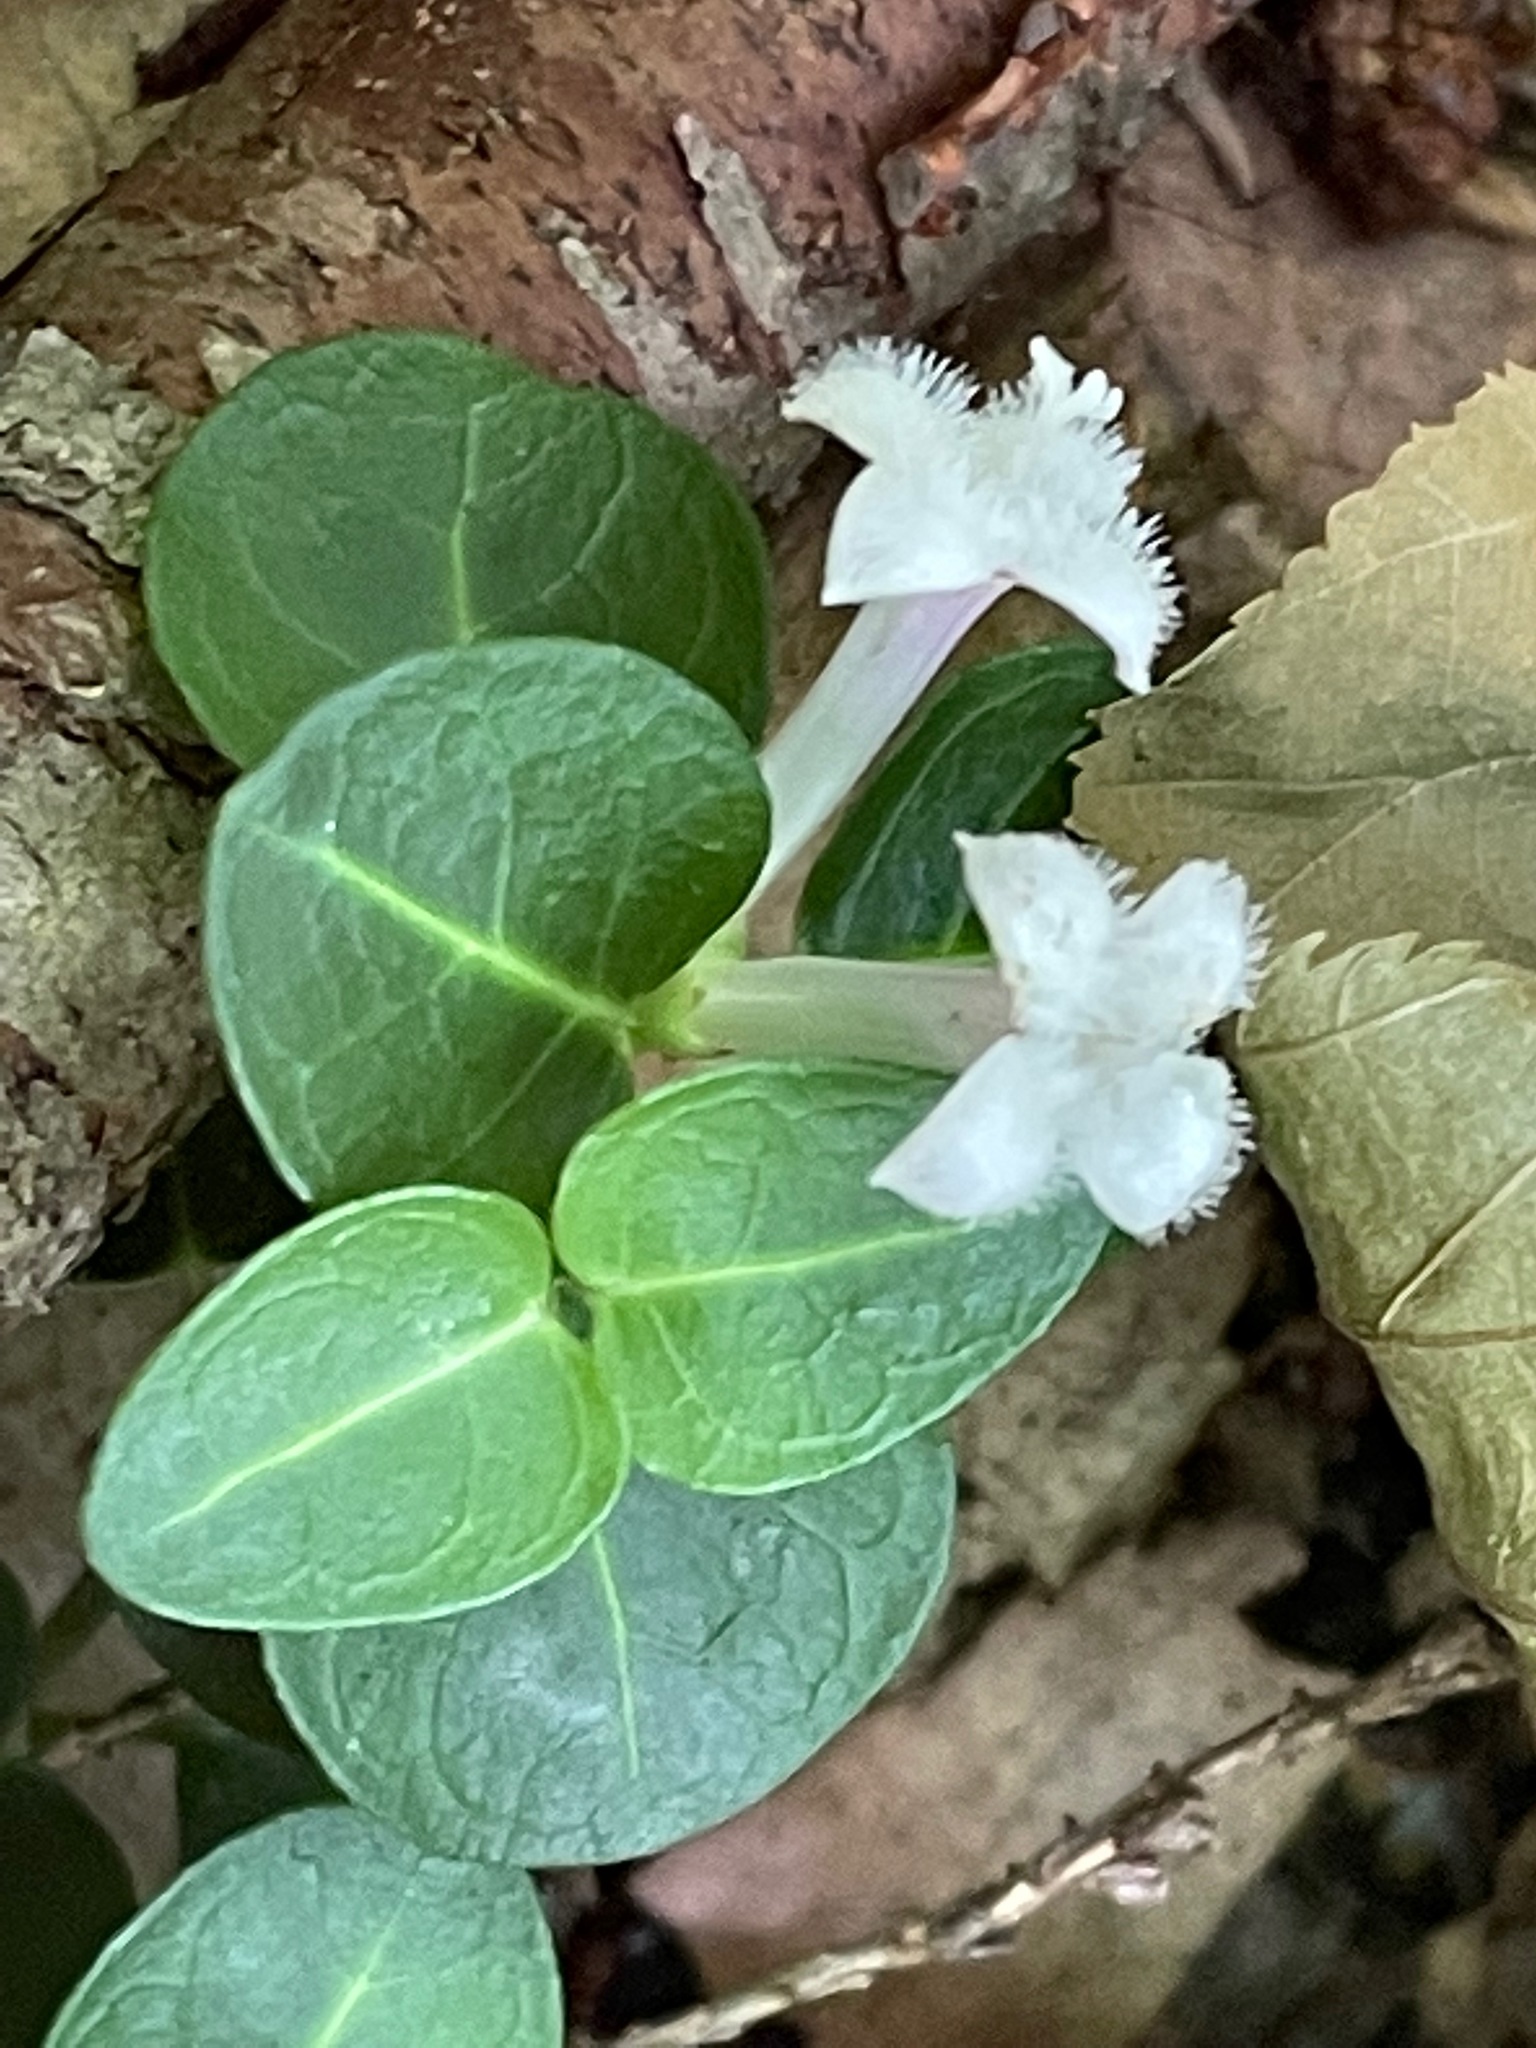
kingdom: Plantae
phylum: Tracheophyta
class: Magnoliopsida
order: Gentianales
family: Rubiaceae
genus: Mitchella
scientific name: Mitchella repens
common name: Partridge-berry
